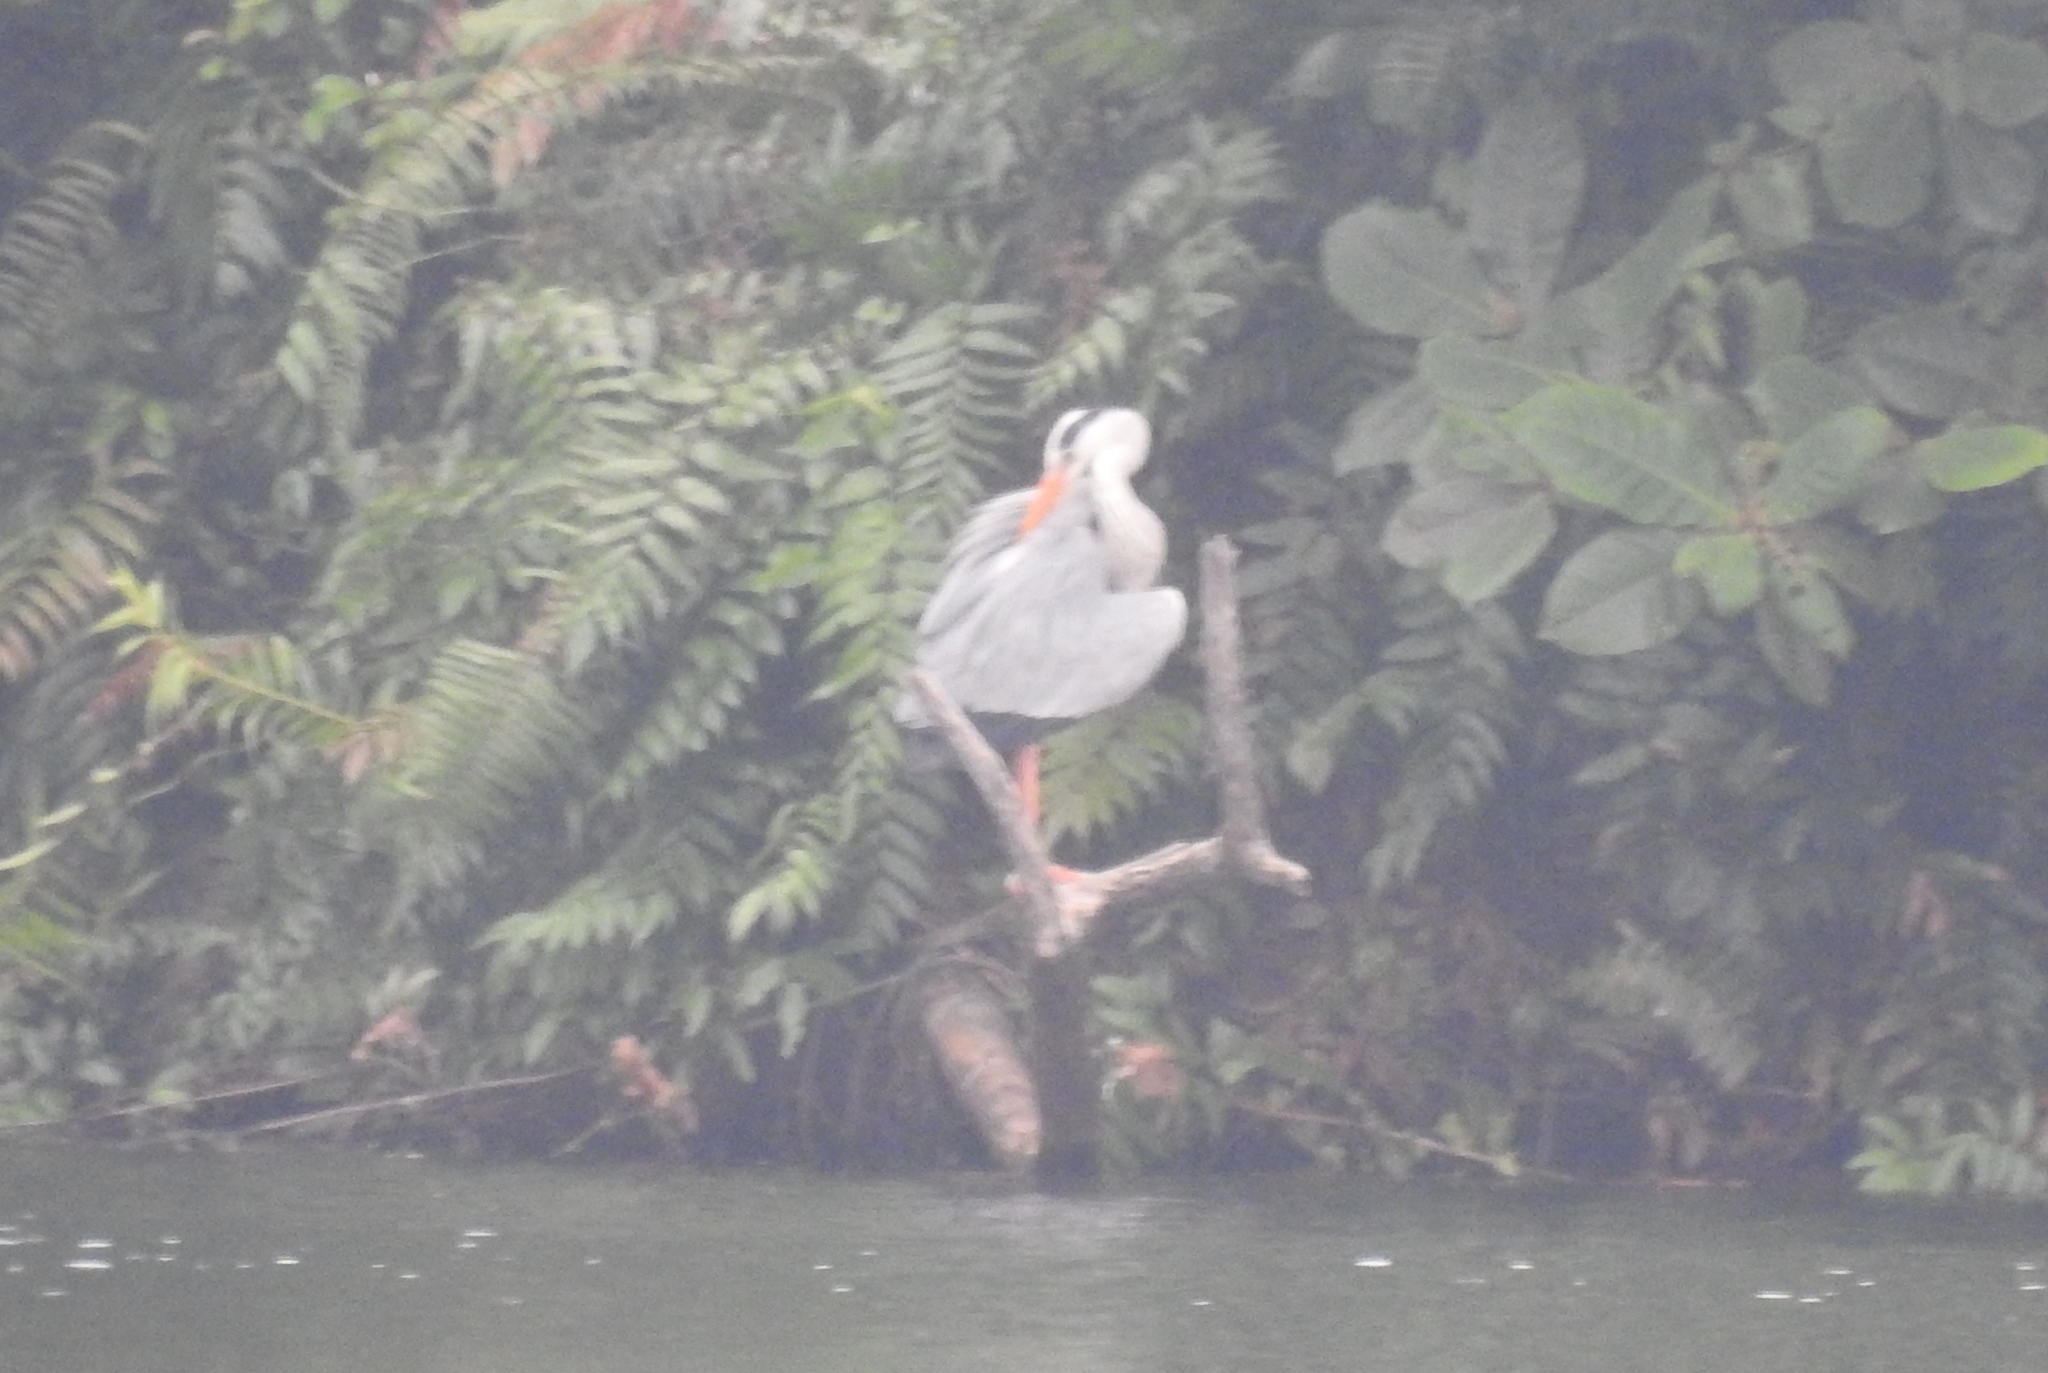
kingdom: Animalia
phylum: Chordata
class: Aves
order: Pelecaniformes
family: Ardeidae
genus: Ardea
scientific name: Ardea cinerea
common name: Grey heron
